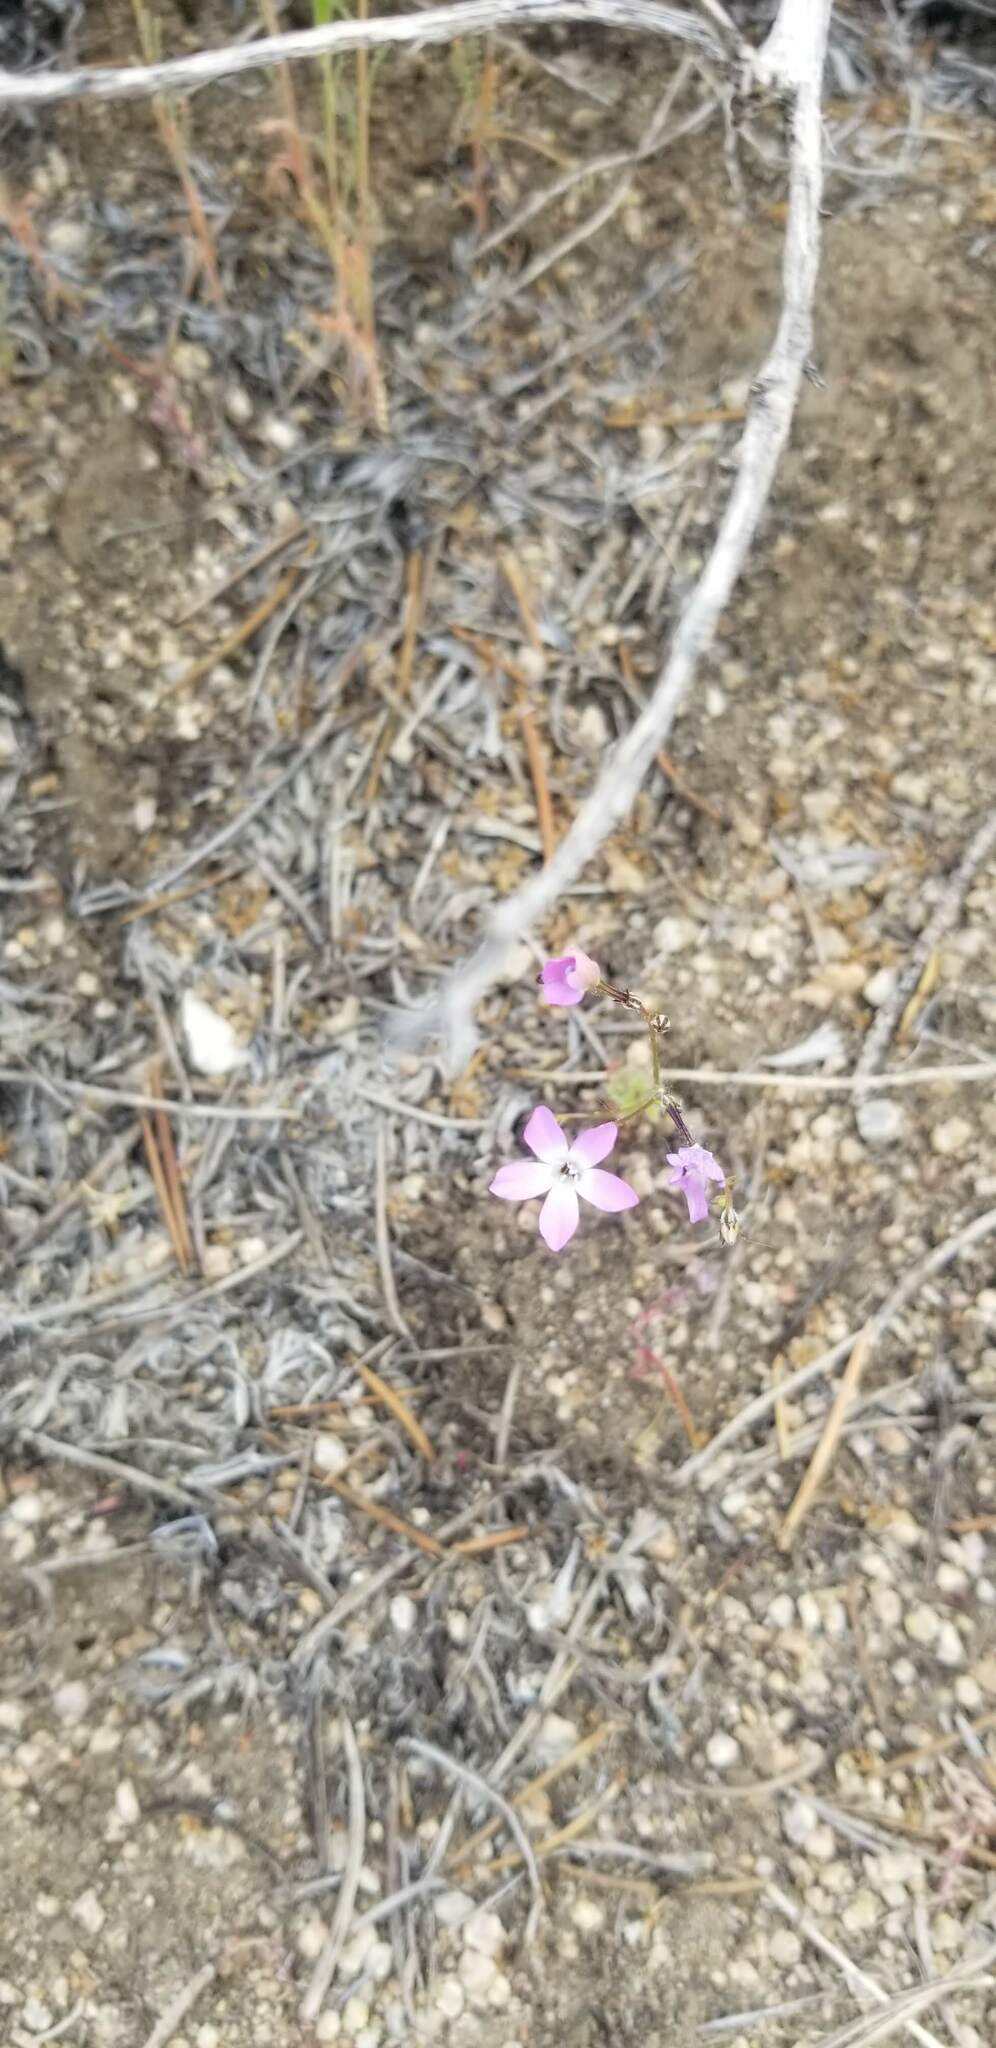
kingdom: Plantae
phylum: Tracheophyta
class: Magnoliopsida
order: Ericales
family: Polemoniaceae
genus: Gilia
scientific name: Gilia leptantha
